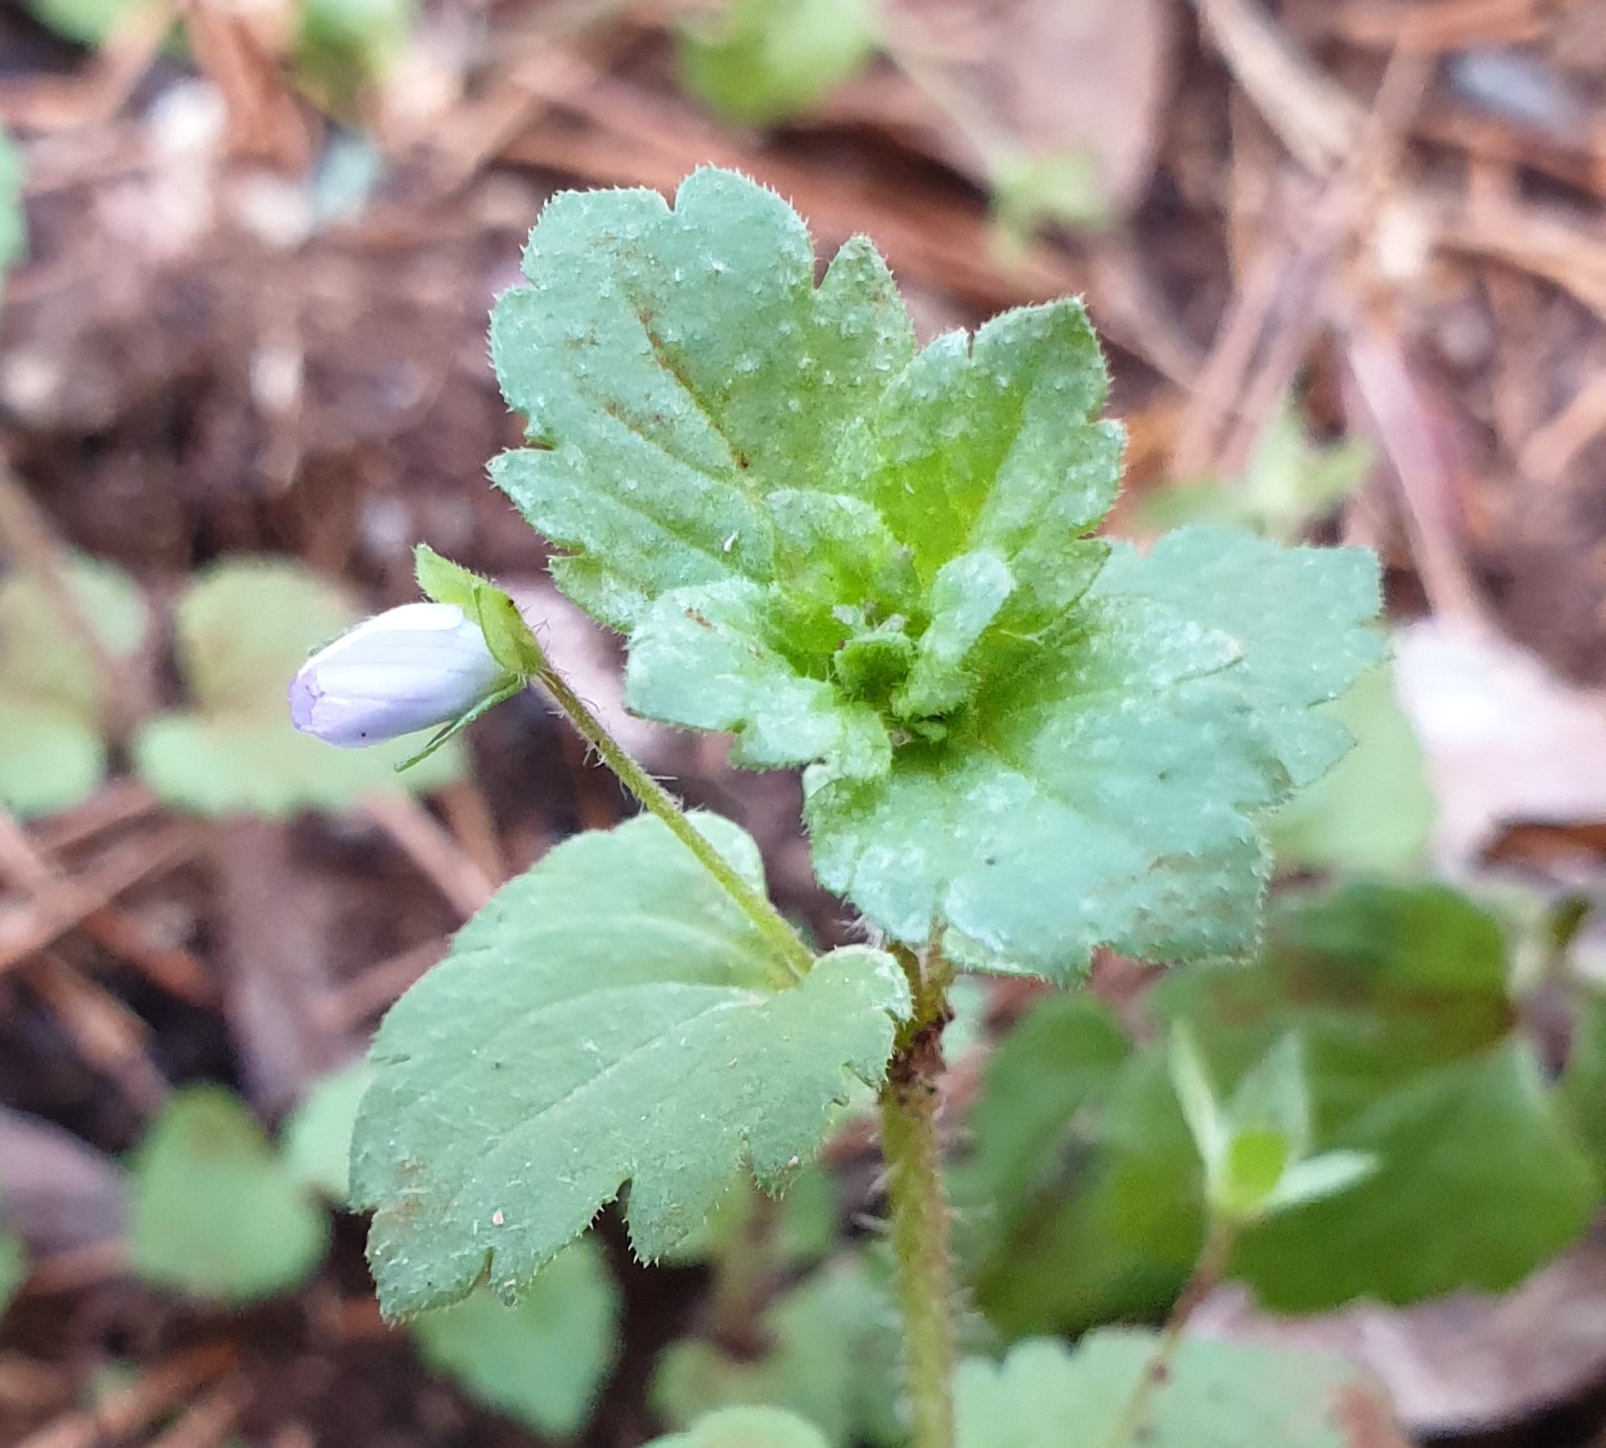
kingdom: Plantae
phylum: Tracheophyta
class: Magnoliopsida
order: Lamiales
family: Plantaginaceae
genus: Veronica
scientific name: Veronica persica
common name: Common field-speedwell
